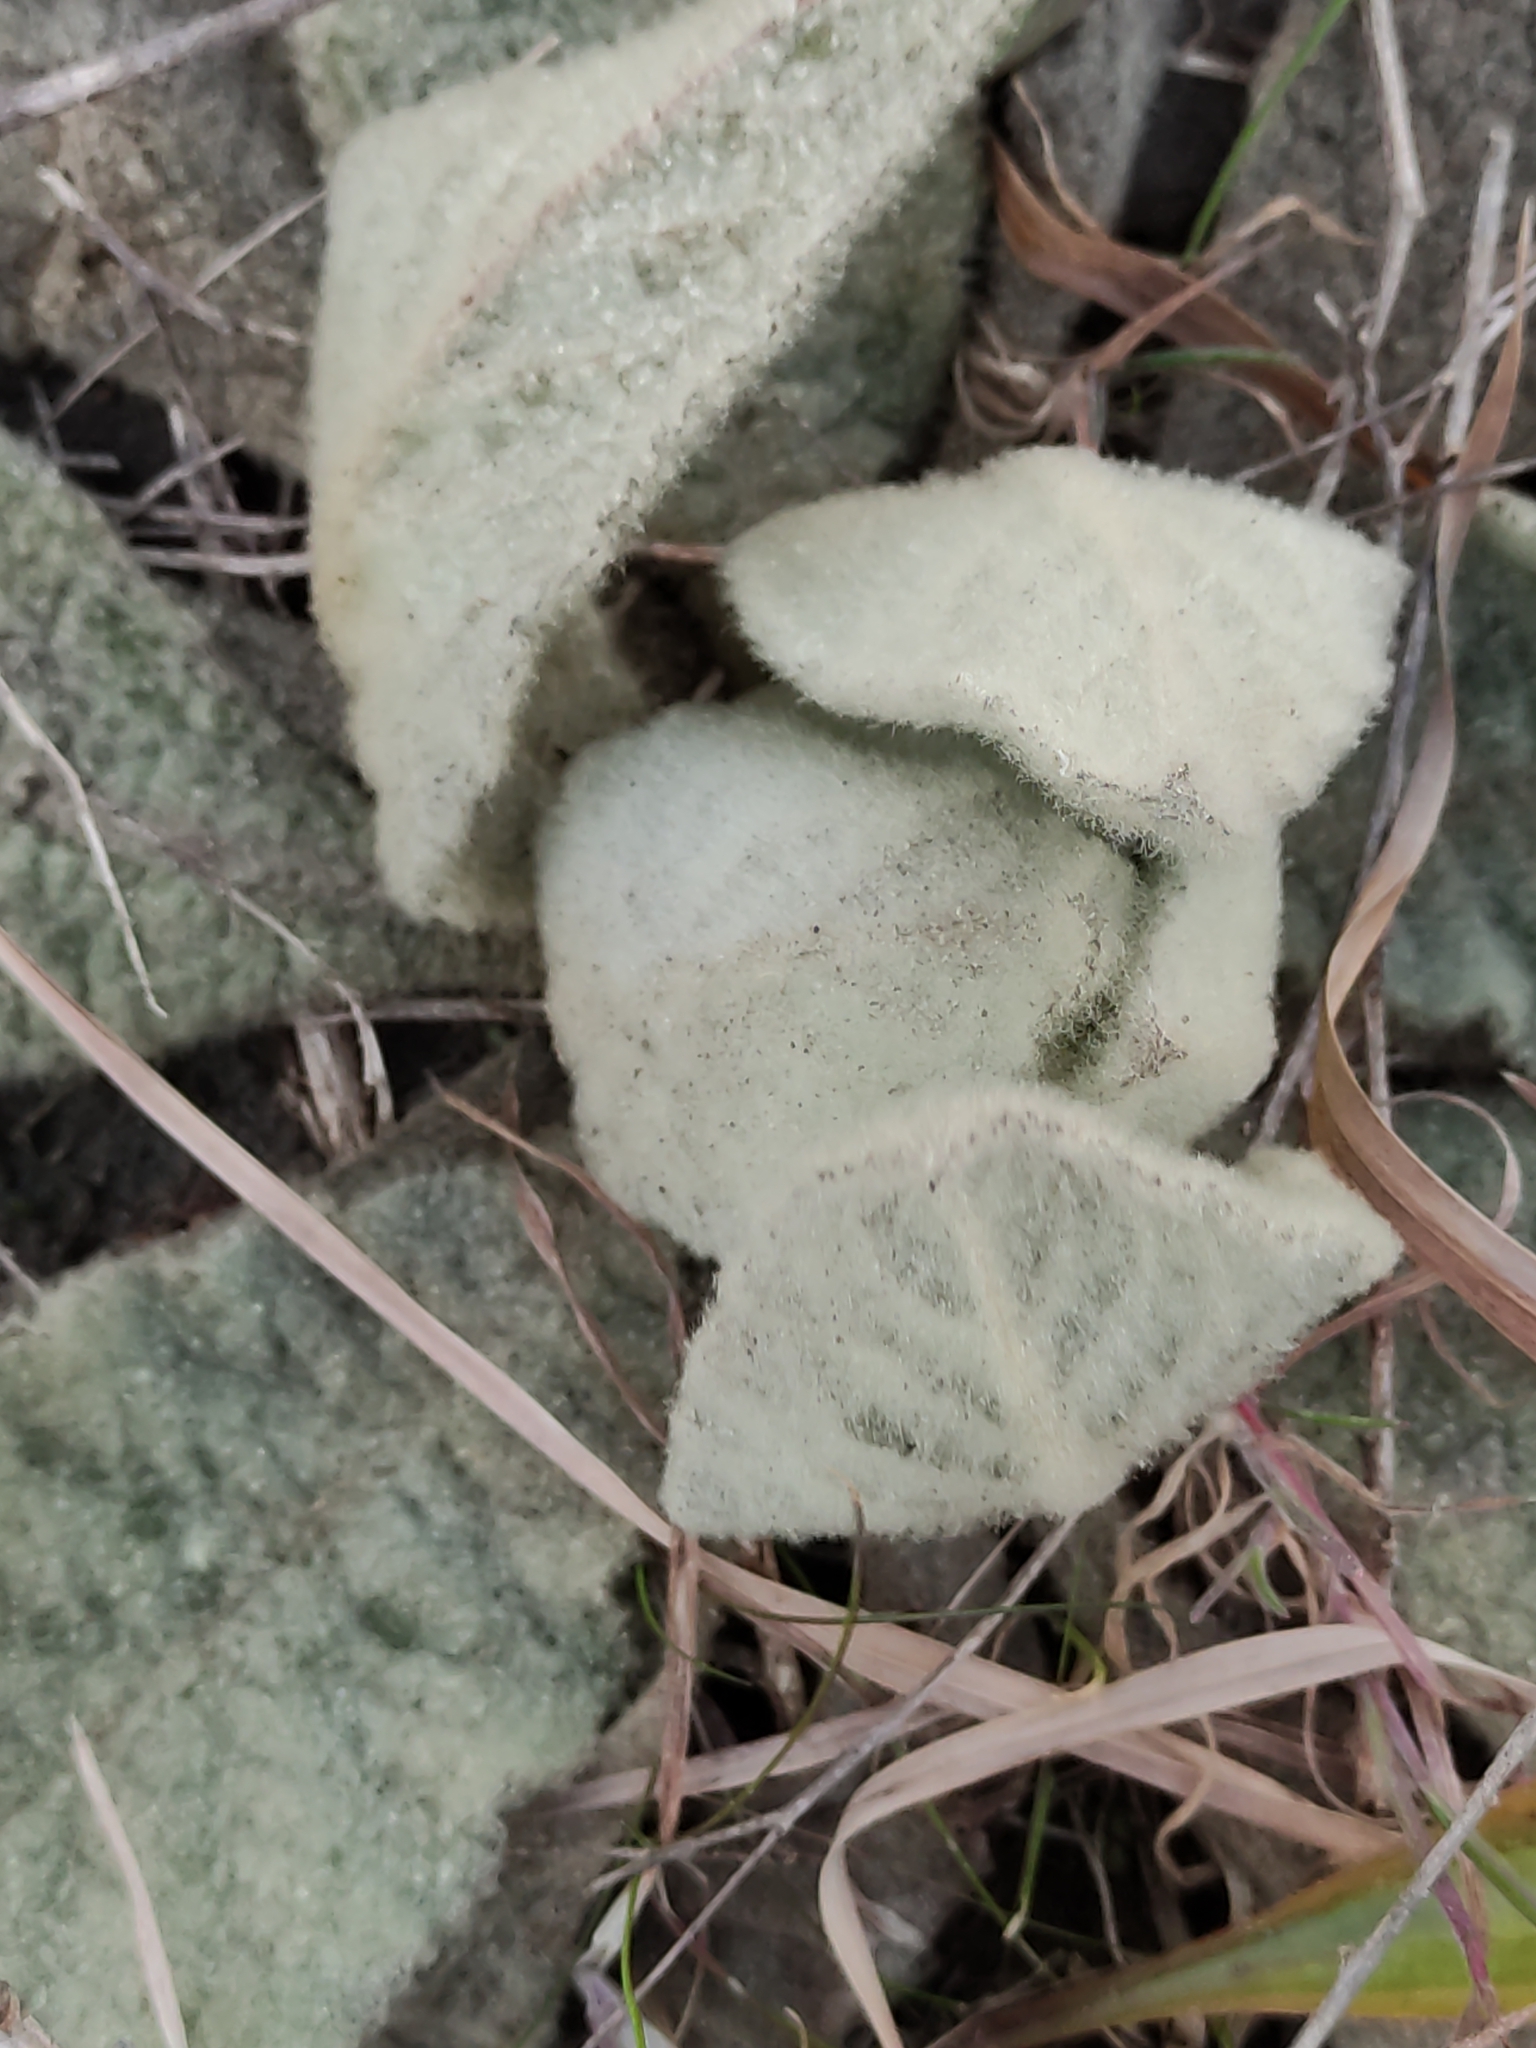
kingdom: Plantae
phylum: Tracheophyta
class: Magnoliopsida
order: Lamiales
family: Scrophulariaceae
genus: Verbascum
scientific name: Verbascum thapsus
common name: Common mullein
